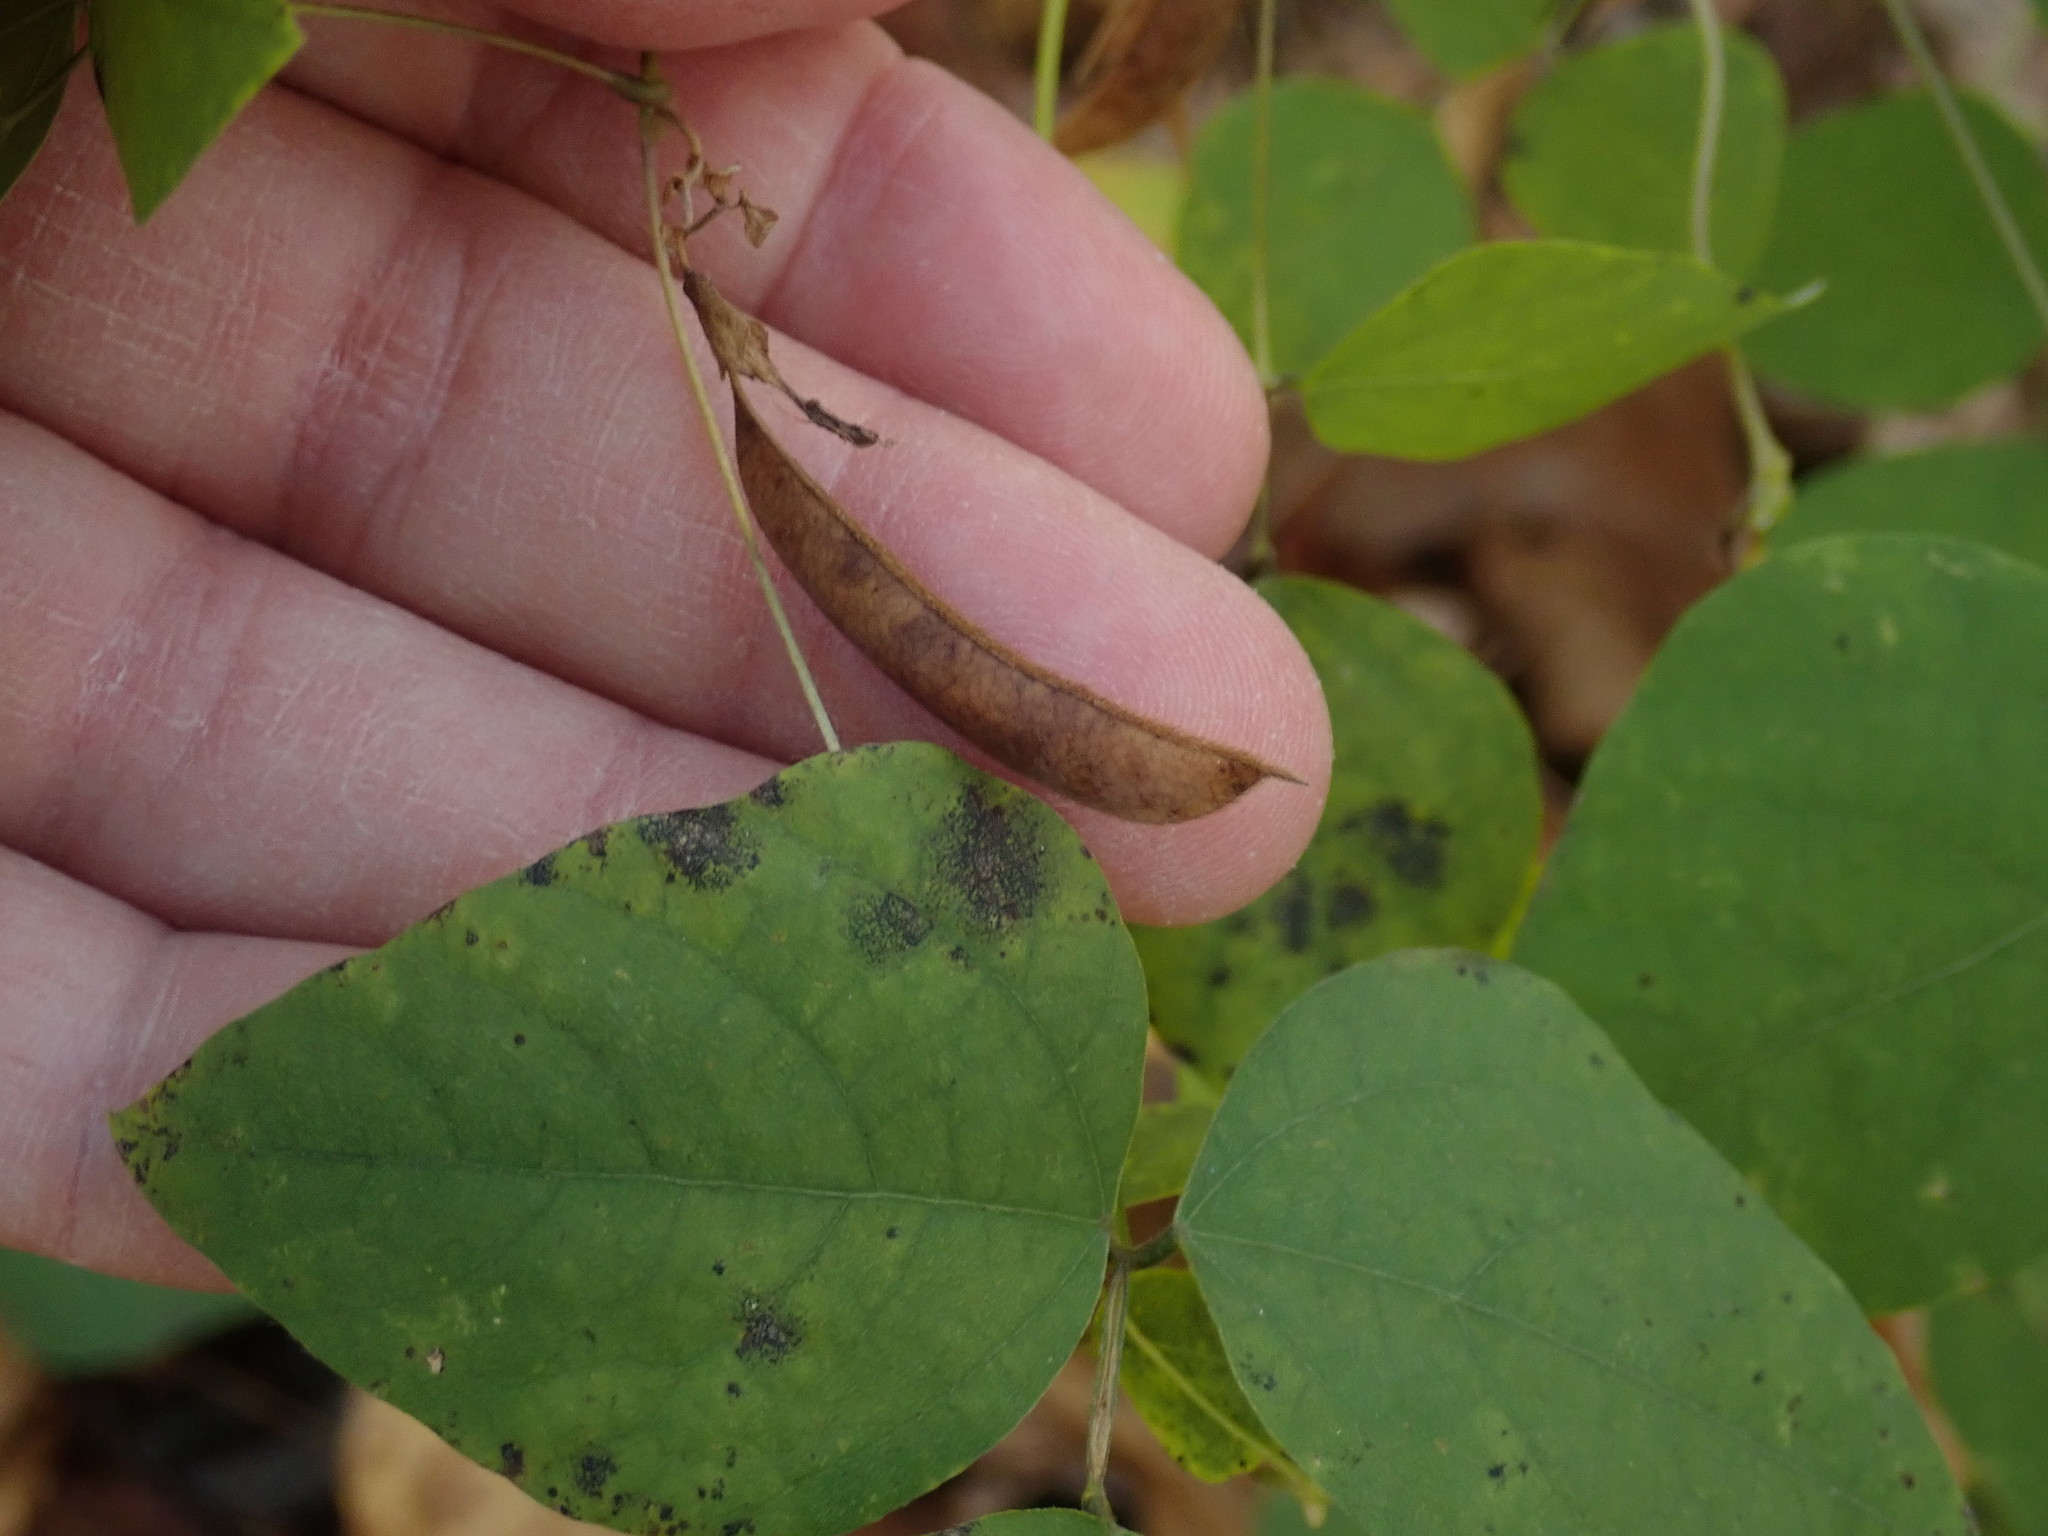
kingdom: Plantae
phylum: Tracheophyta
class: Magnoliopsida
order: Fabales
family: Fabaceae
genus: Amphicarpaea
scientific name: Amphicarpaea bracteata
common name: American hog peanut
